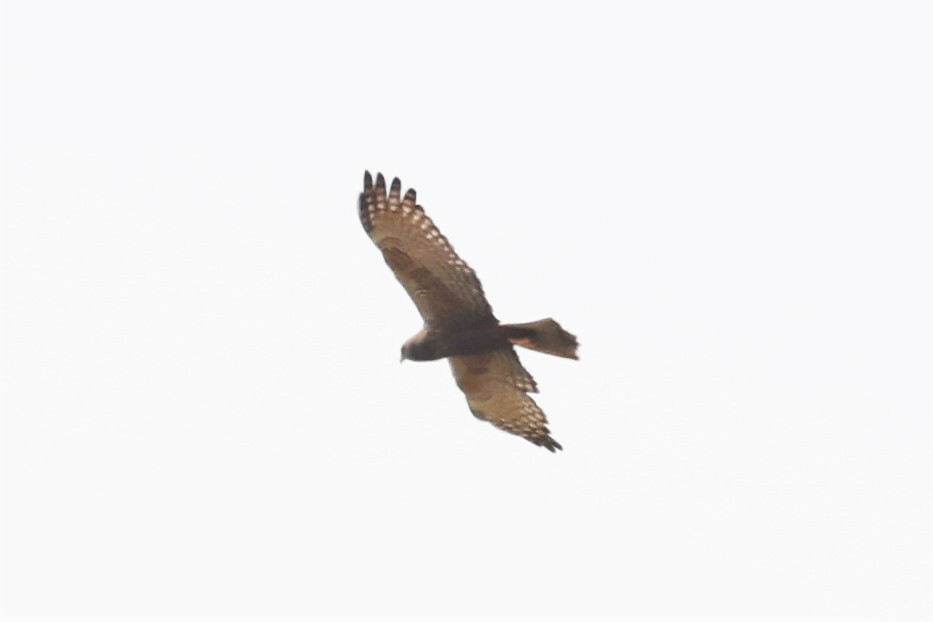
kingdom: Animalia
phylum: Chordata
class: Aves
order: Accipitriformes
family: Accipitridae
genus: Circus
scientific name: Circus ranivorus
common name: African marsh-harrier
